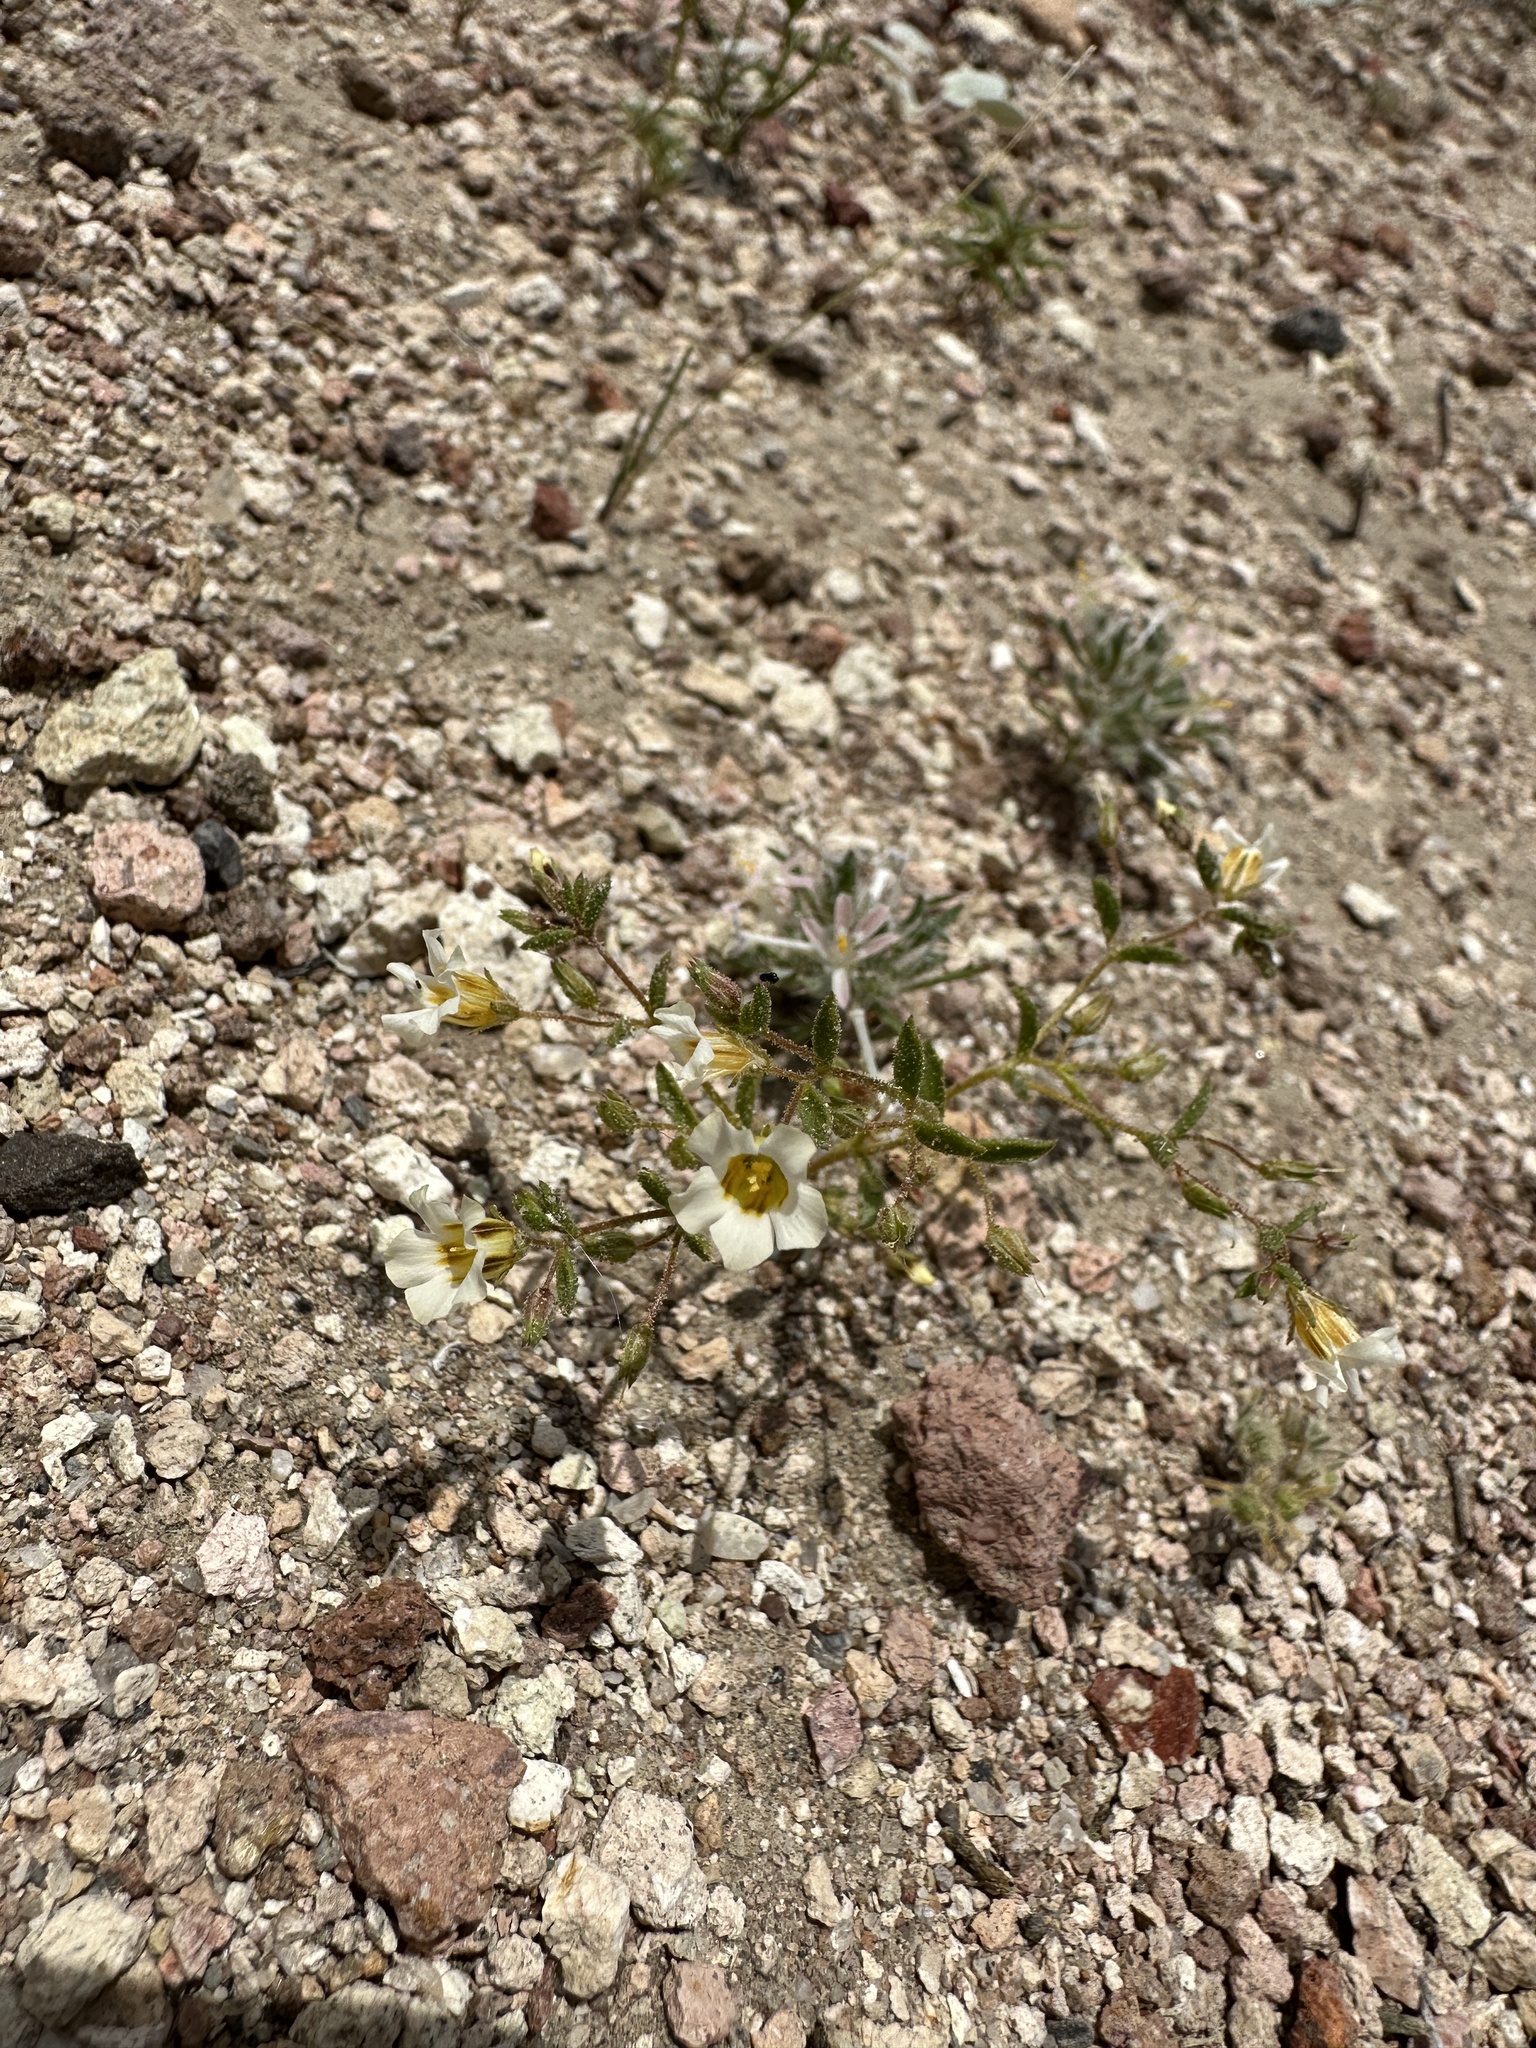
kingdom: Plantae
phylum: Tracheophyta
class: Magnoliopsida
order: Ericales
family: Polemoniaceae
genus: Linanthus
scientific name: Linanthus campanulatus
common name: Bellshape gilia
